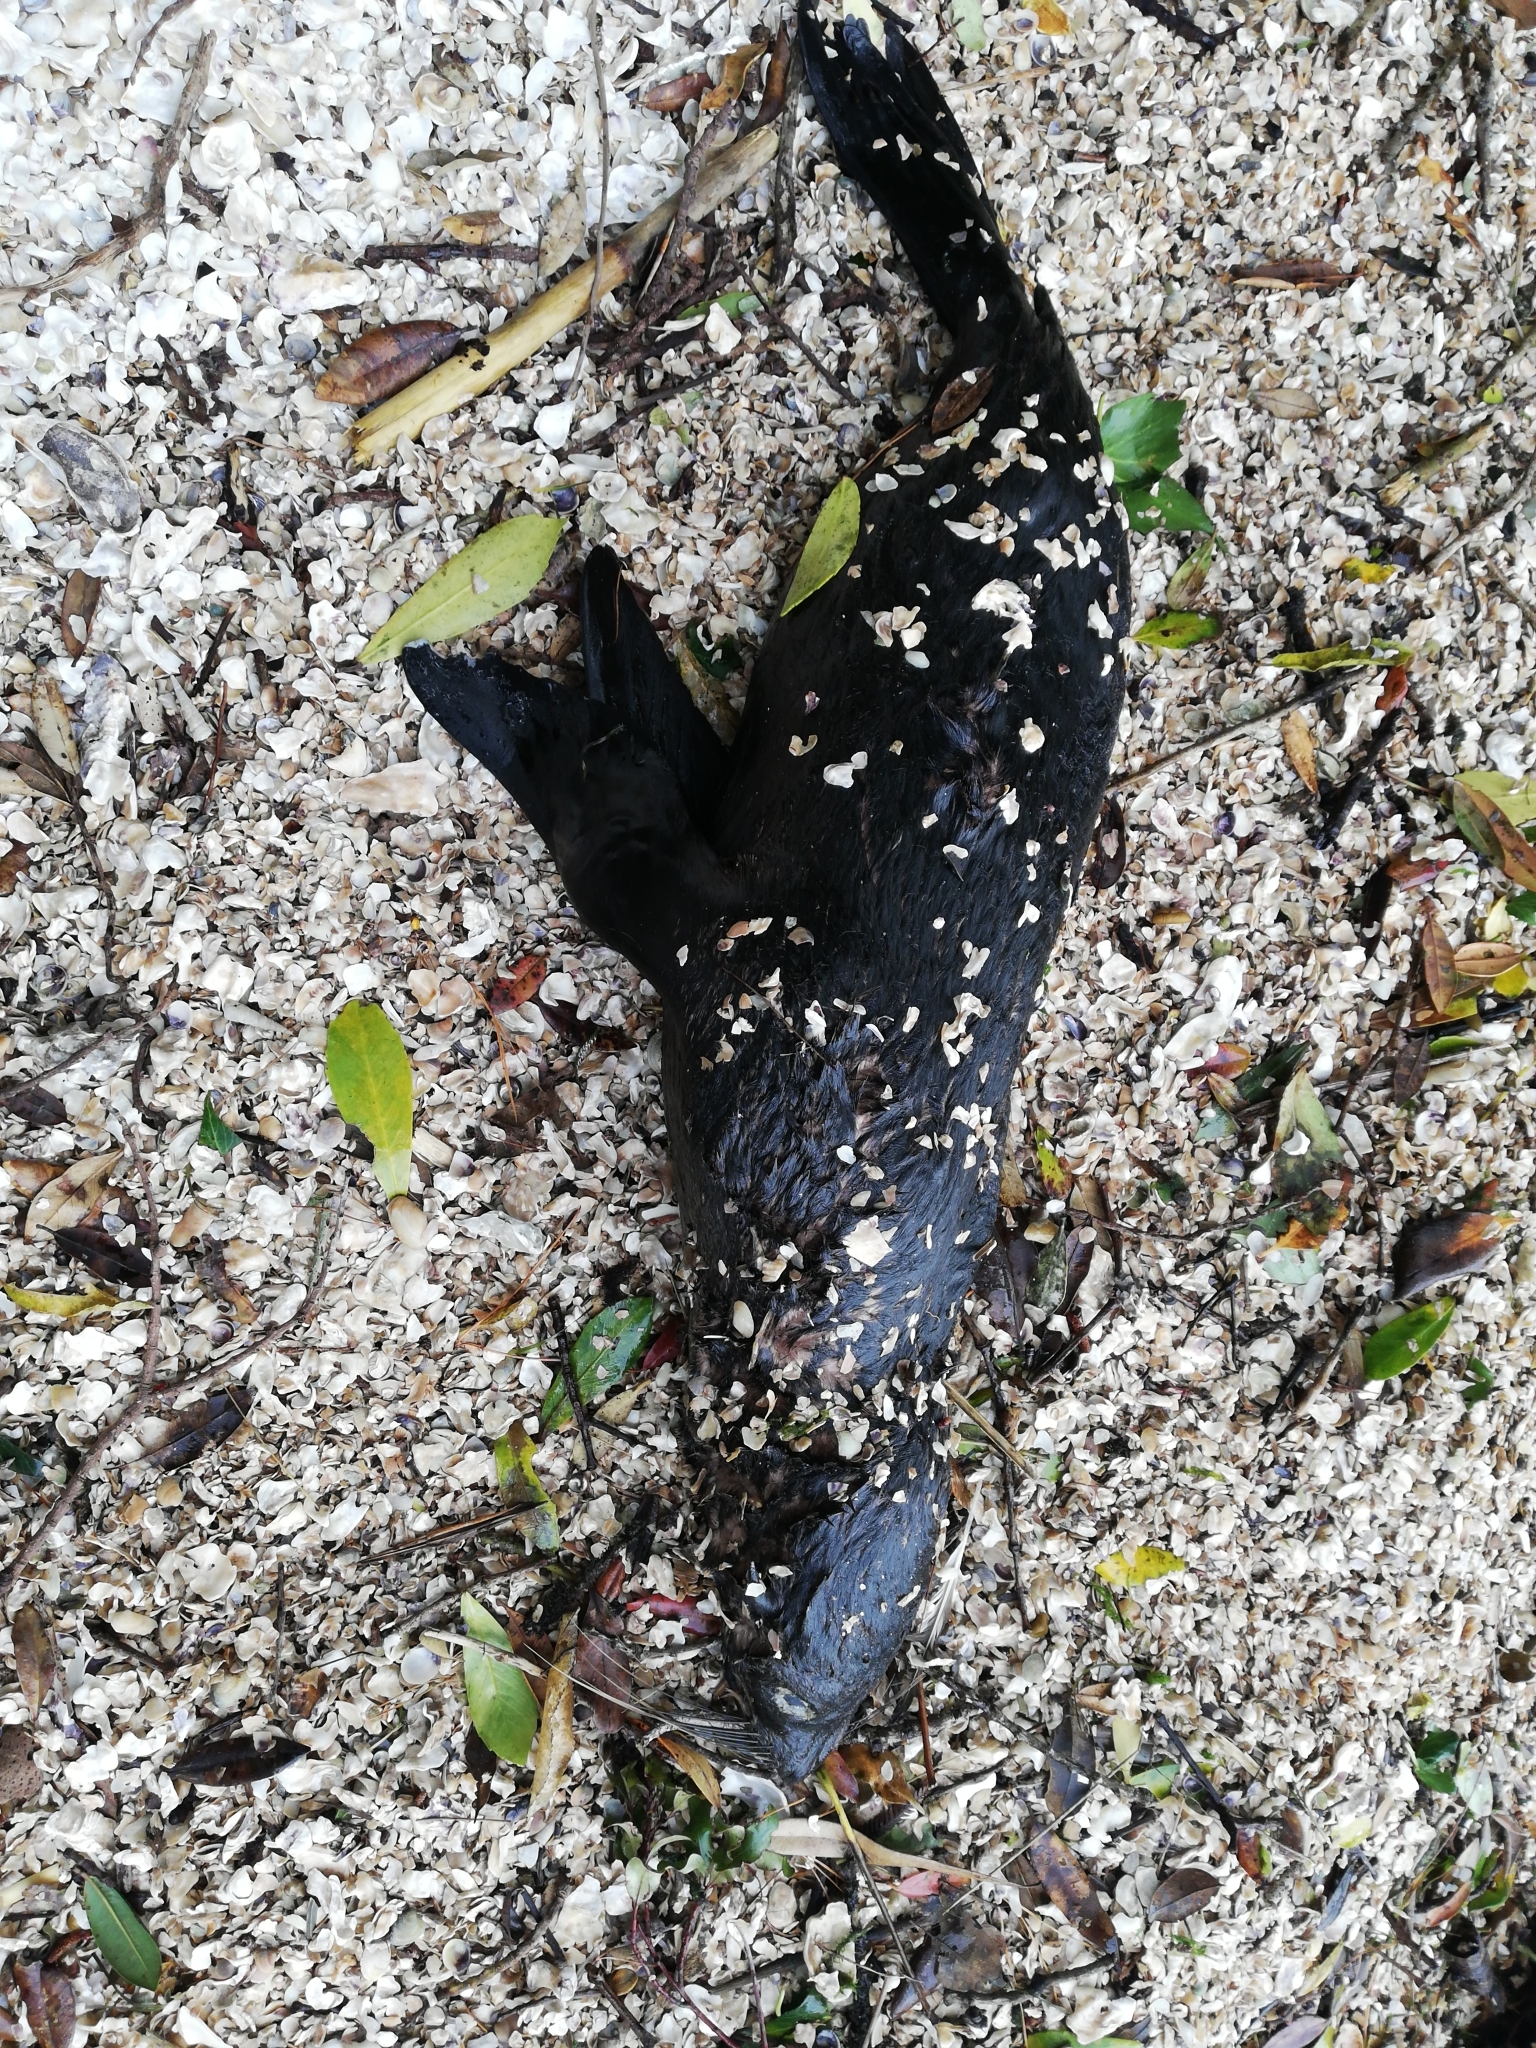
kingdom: Animalia
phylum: Chordata
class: Mammalia
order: Carnivora
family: Otariidae
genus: Arctocephalus
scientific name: Arctocephalus forsteri
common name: New zealand fur seal
